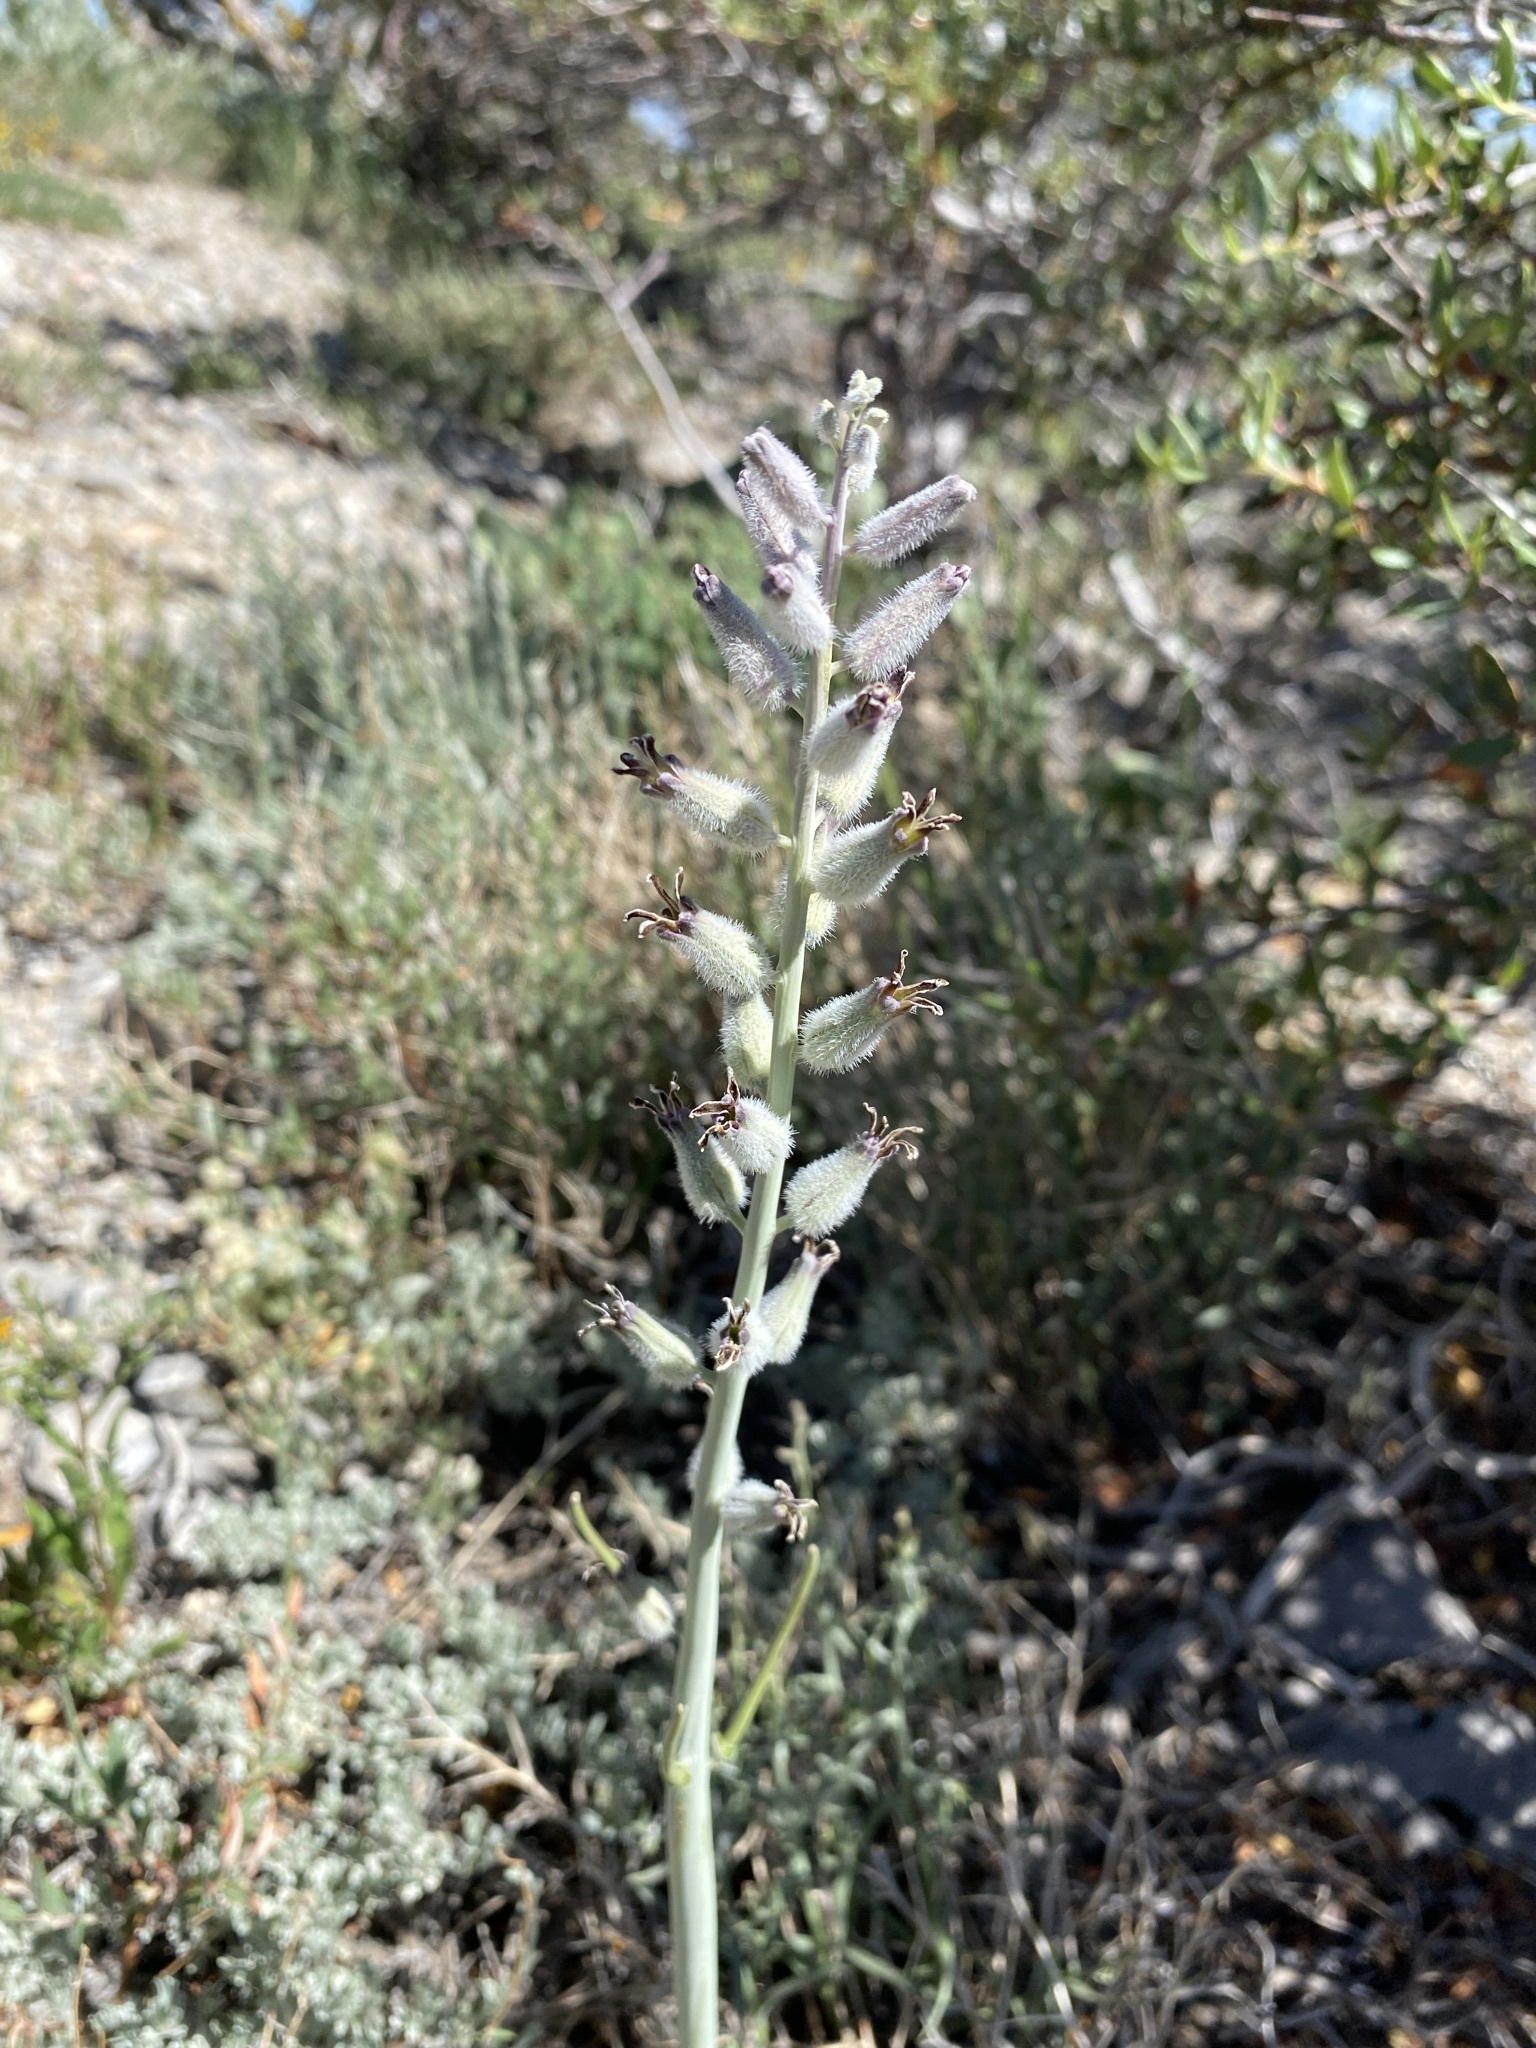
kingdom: Plantae
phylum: Tracheophyta
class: Magnoliopsida
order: Brassicales
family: Brassicaceae
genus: Streptanthus
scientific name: Streptanthus crassicaulis
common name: Thick-stem wild cabbage
